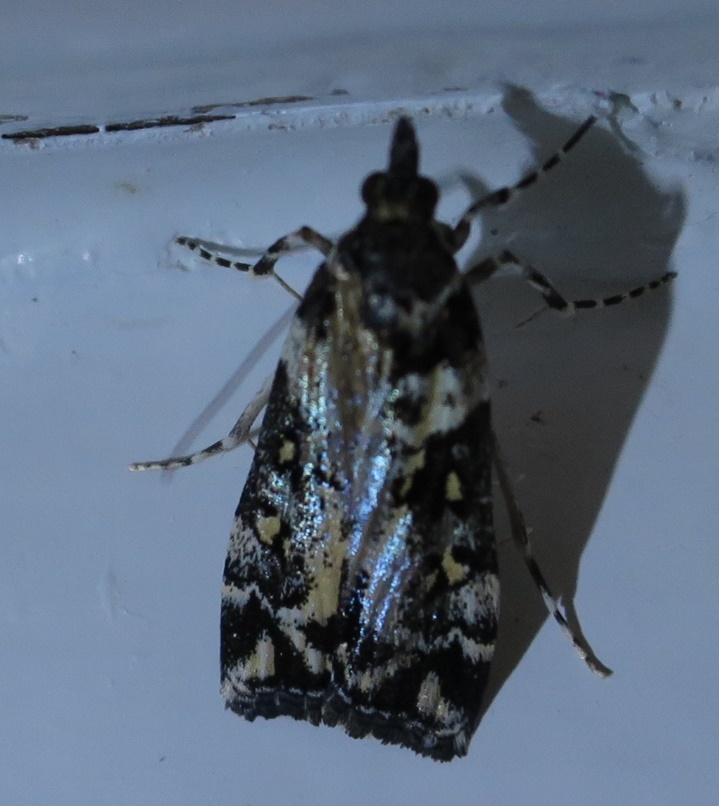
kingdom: Animalia
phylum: Arthropoda
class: Insecta
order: Lepidoptera
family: Crambidae
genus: Eudonia
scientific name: Eudonia diphtheralis
